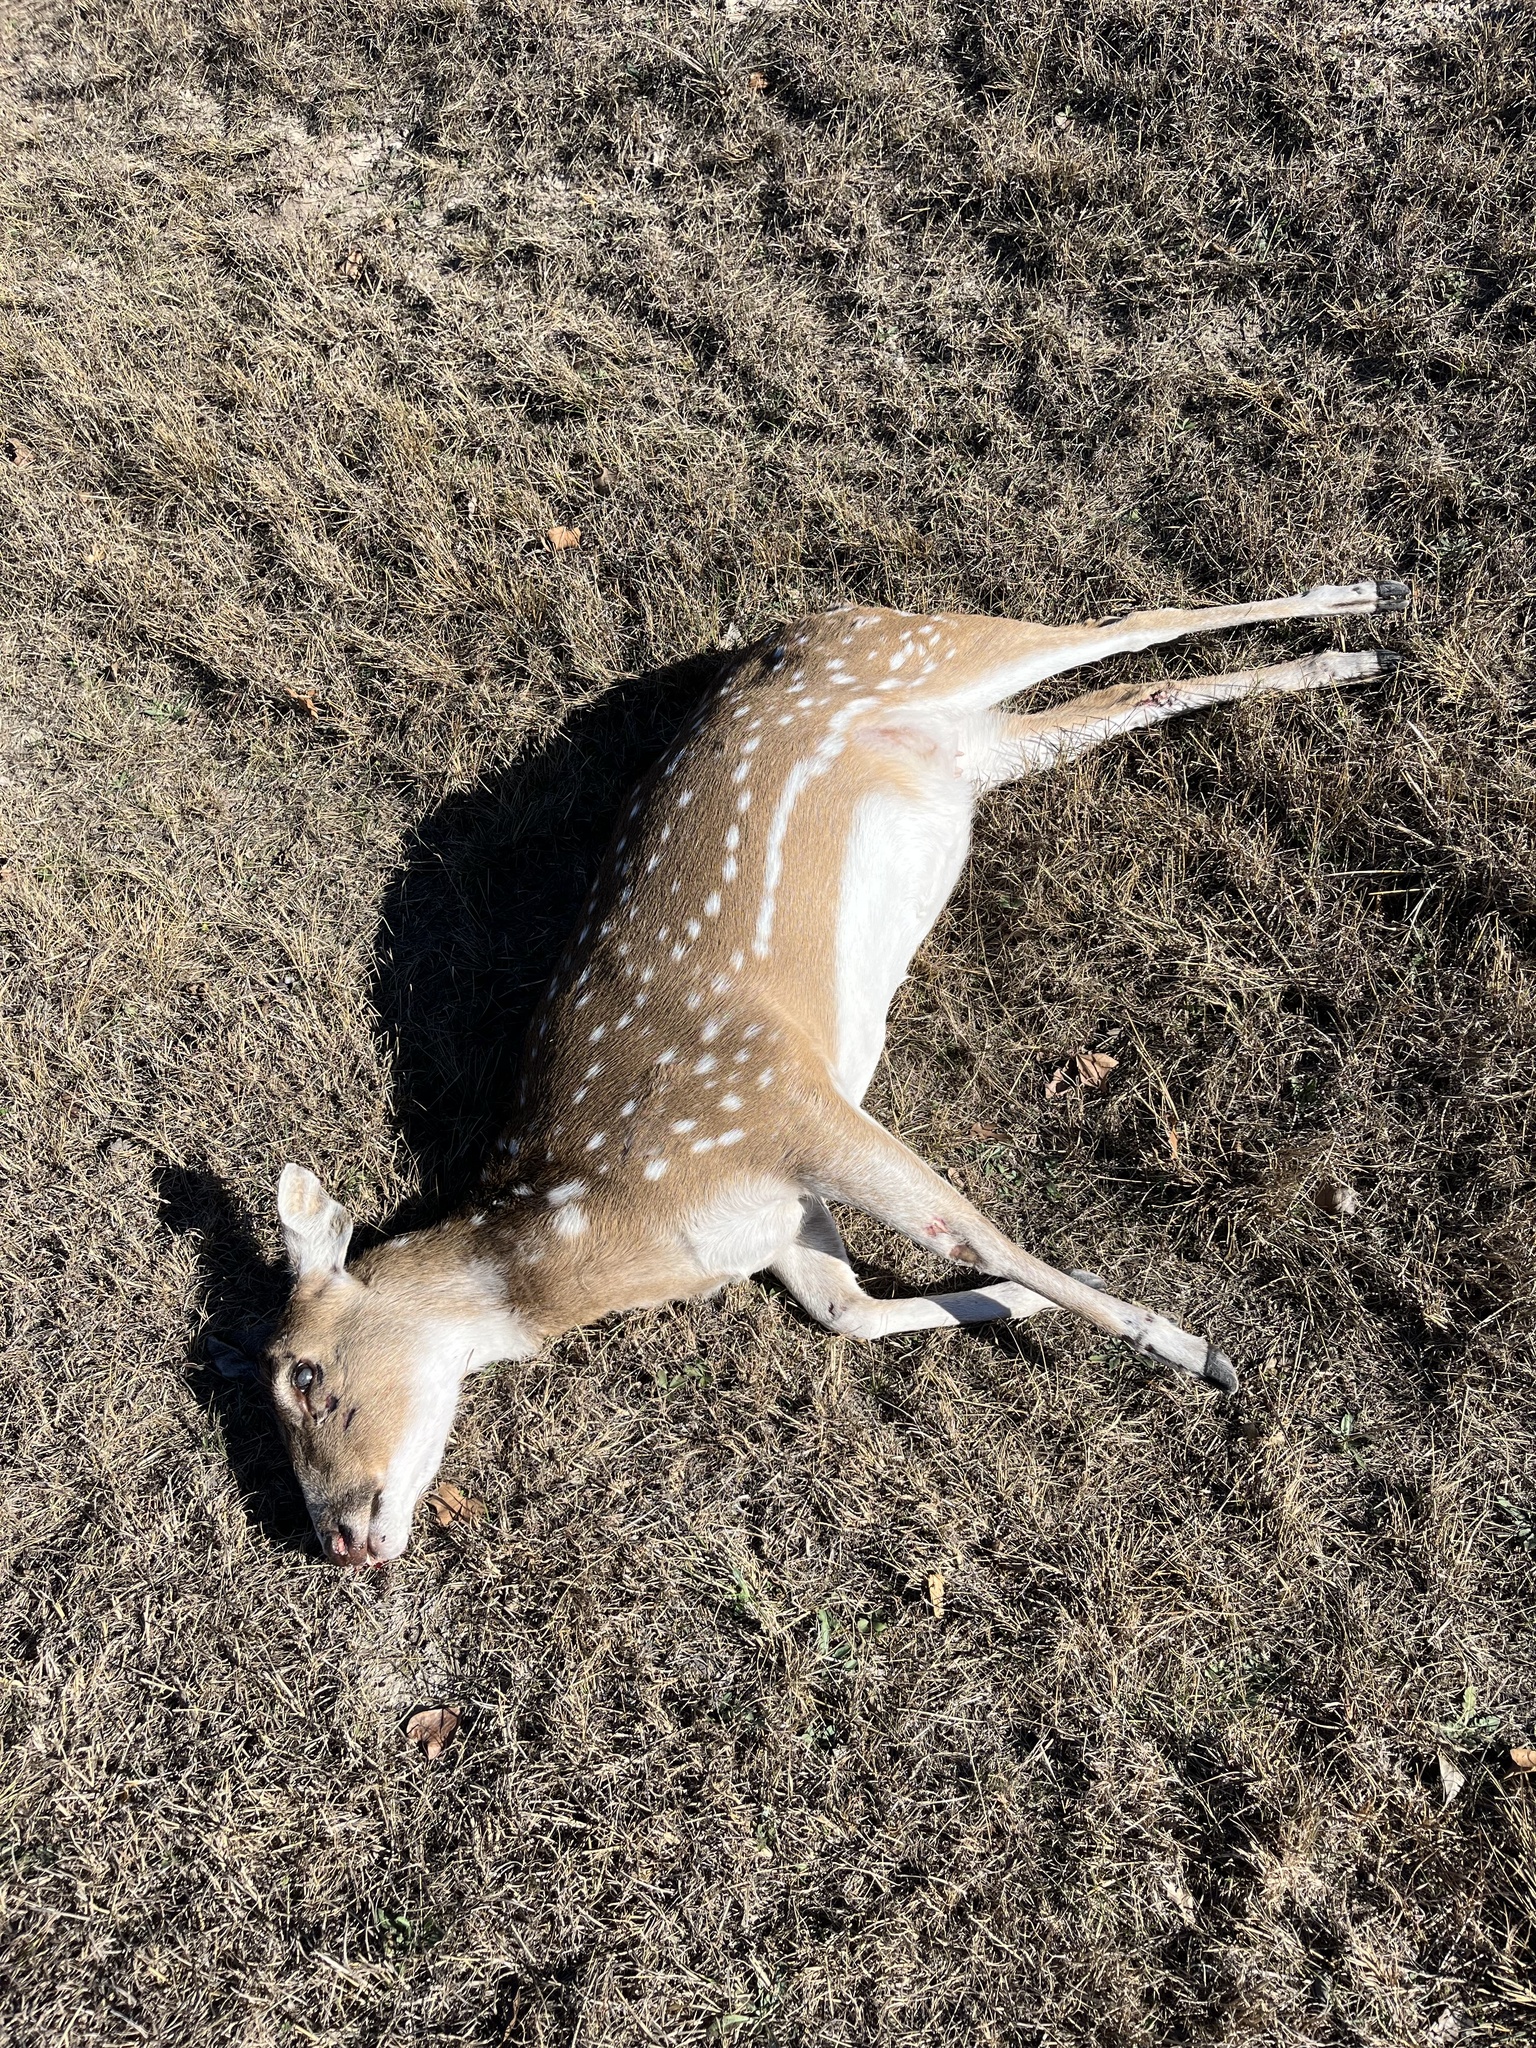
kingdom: Animalia
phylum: Chordata
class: Mammalia
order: Artiodactyla
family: Cervidae
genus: Axis
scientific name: Axis axis
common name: Chital
